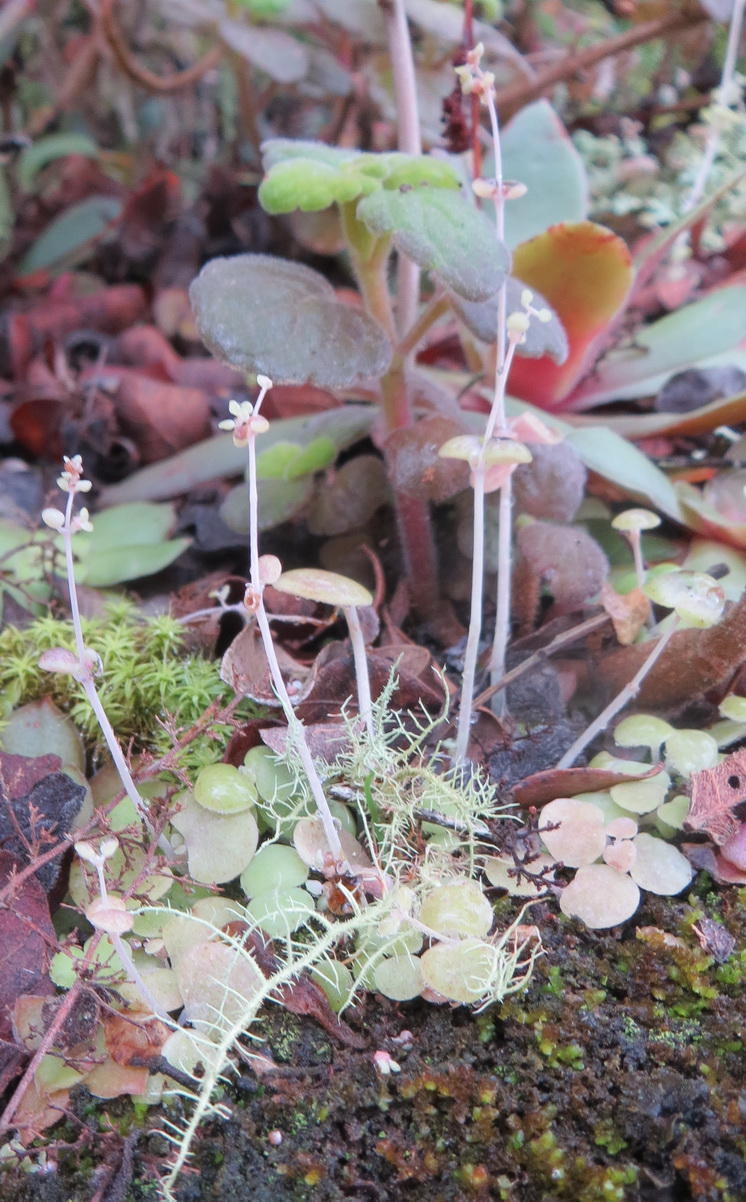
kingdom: Plantae
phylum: Tracheophyta
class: Magnoliopsida
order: Saxifragales
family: Crassulaceae
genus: Crassula
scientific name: Crassula nemorosa
